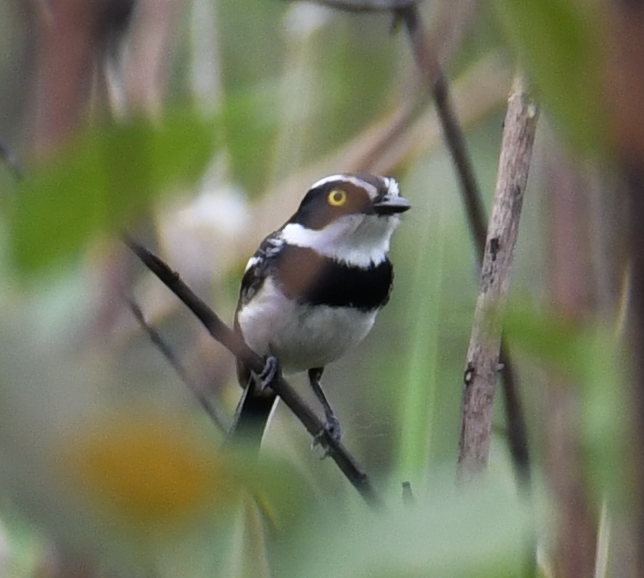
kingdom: Animalia
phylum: Chordata
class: Aves
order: Passeriformes
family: Platysteiridae
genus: Batis
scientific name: Batis senegalensis
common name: Senegal batis
